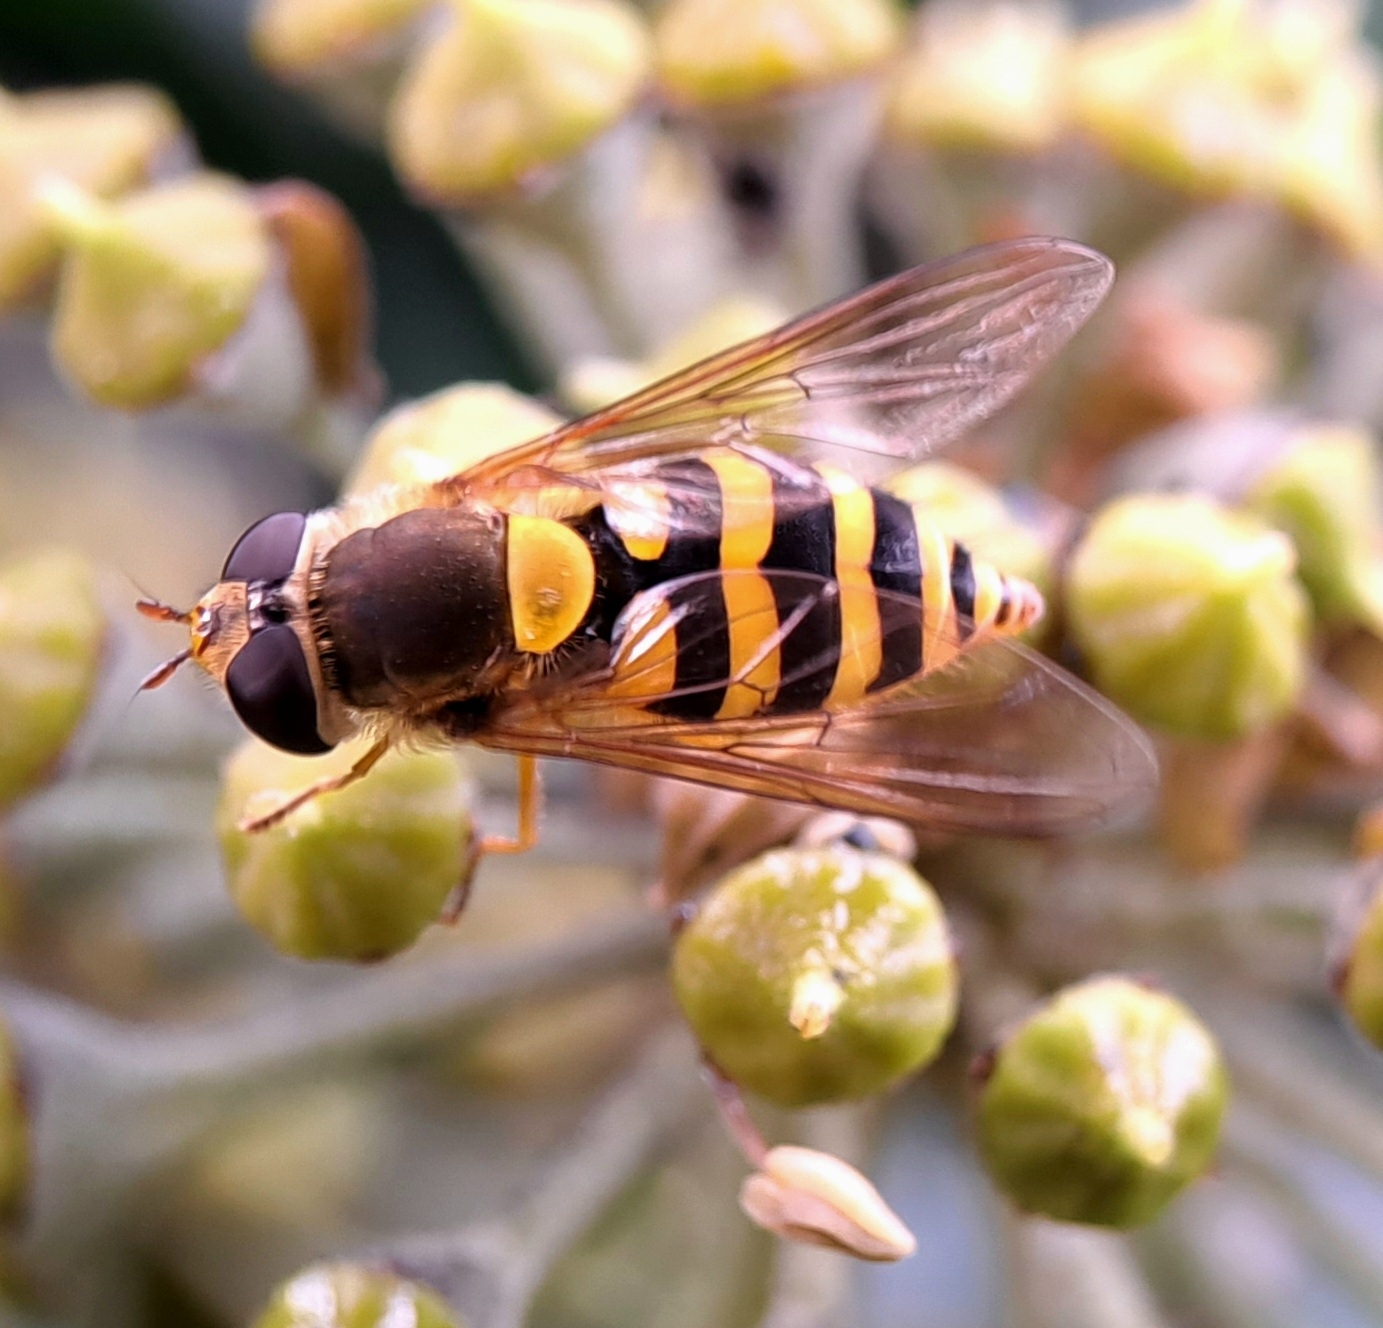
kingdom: Animalia
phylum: Arthropoda
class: Insecta
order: Diptera
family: Syrphidae
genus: Syrphus
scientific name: Syrphus
